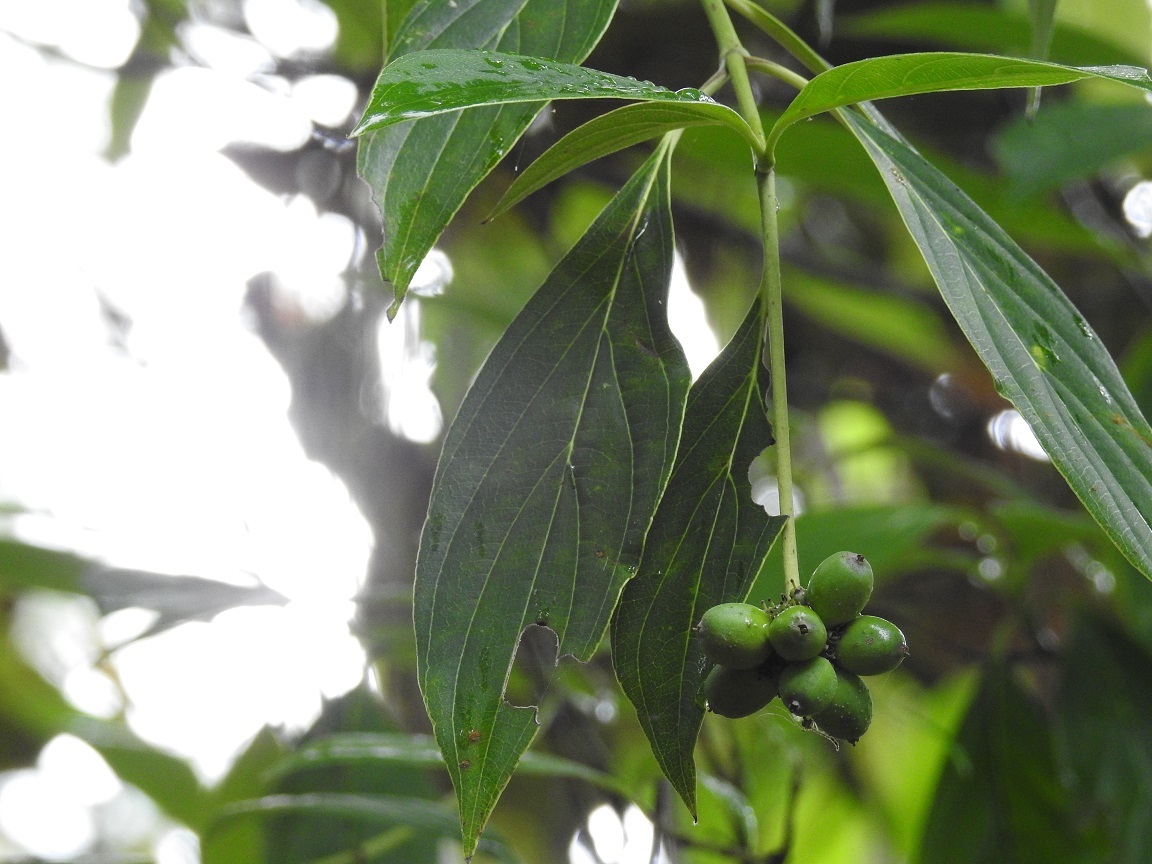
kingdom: Plantae
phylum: Tracheophyta
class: Magnoliopsida
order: Cornales
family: Cornaceae
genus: Cornus
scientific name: Cornus disciflora
